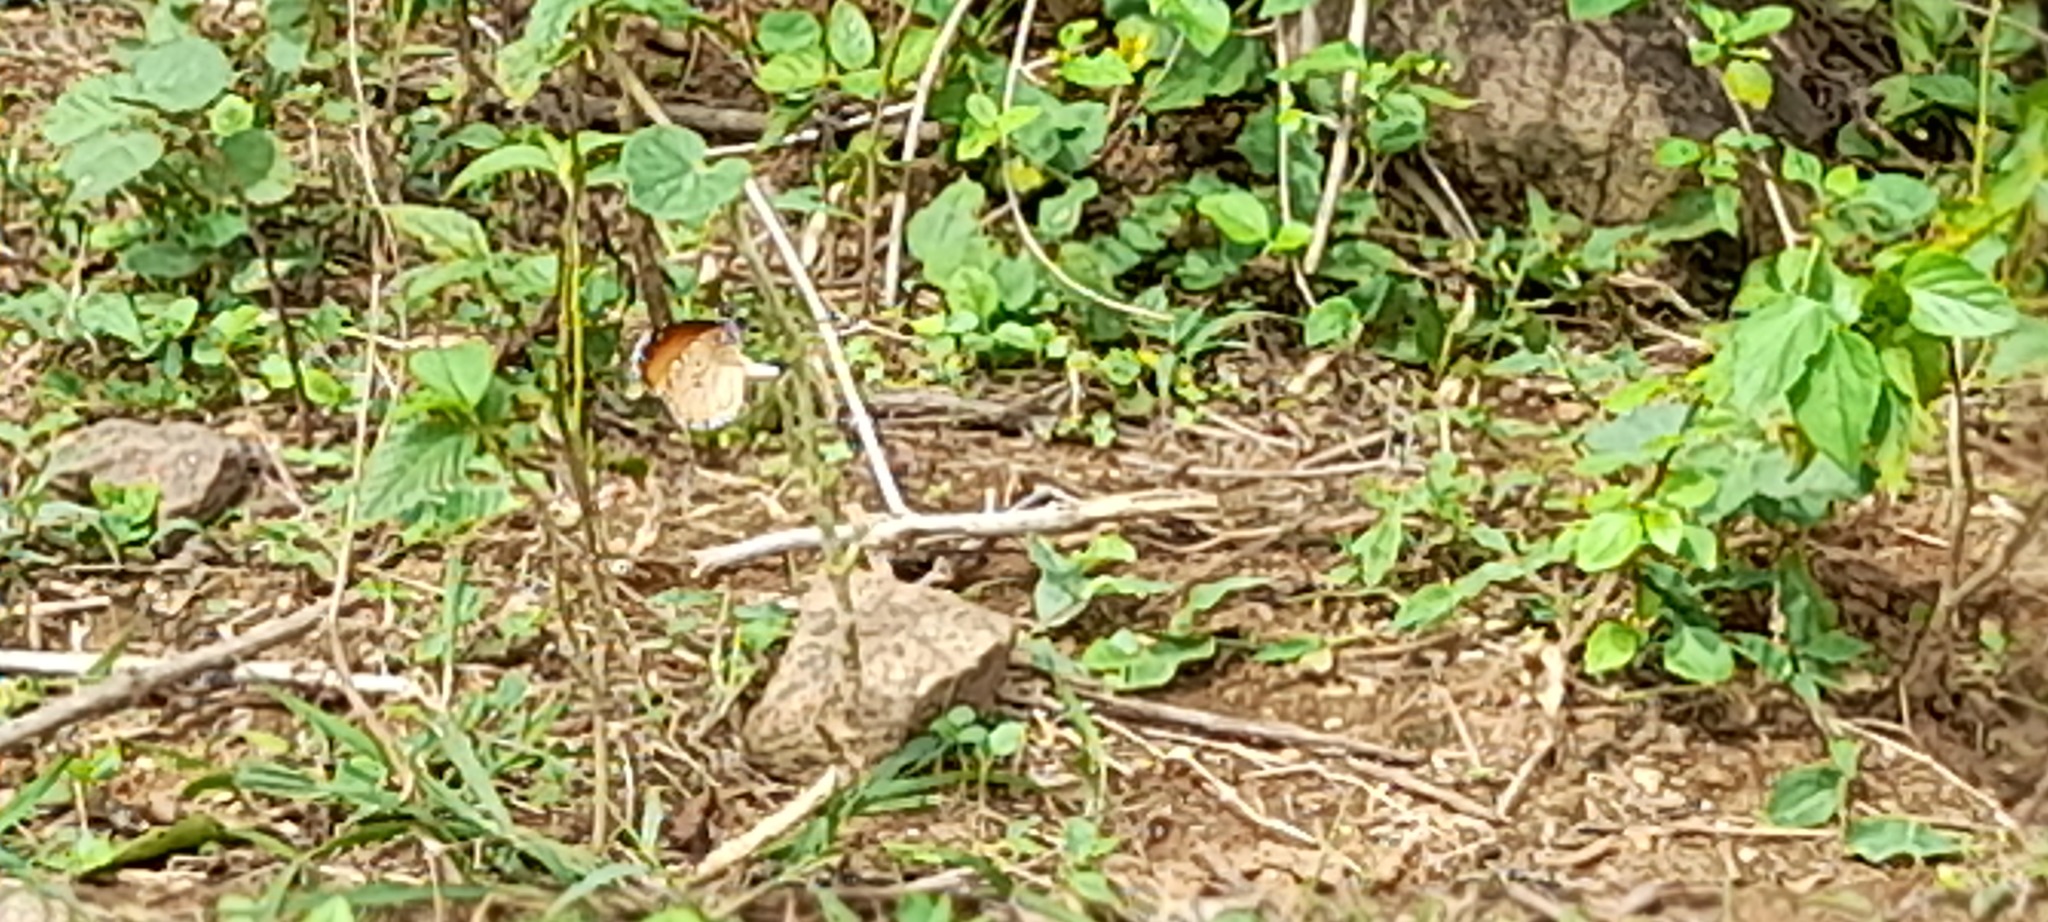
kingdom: Animalia
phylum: Arthropoda
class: Insecta
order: Lepidoptera
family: Nymphalidae
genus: Danaus
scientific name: Danaus chrysippus
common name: Plain tiger
